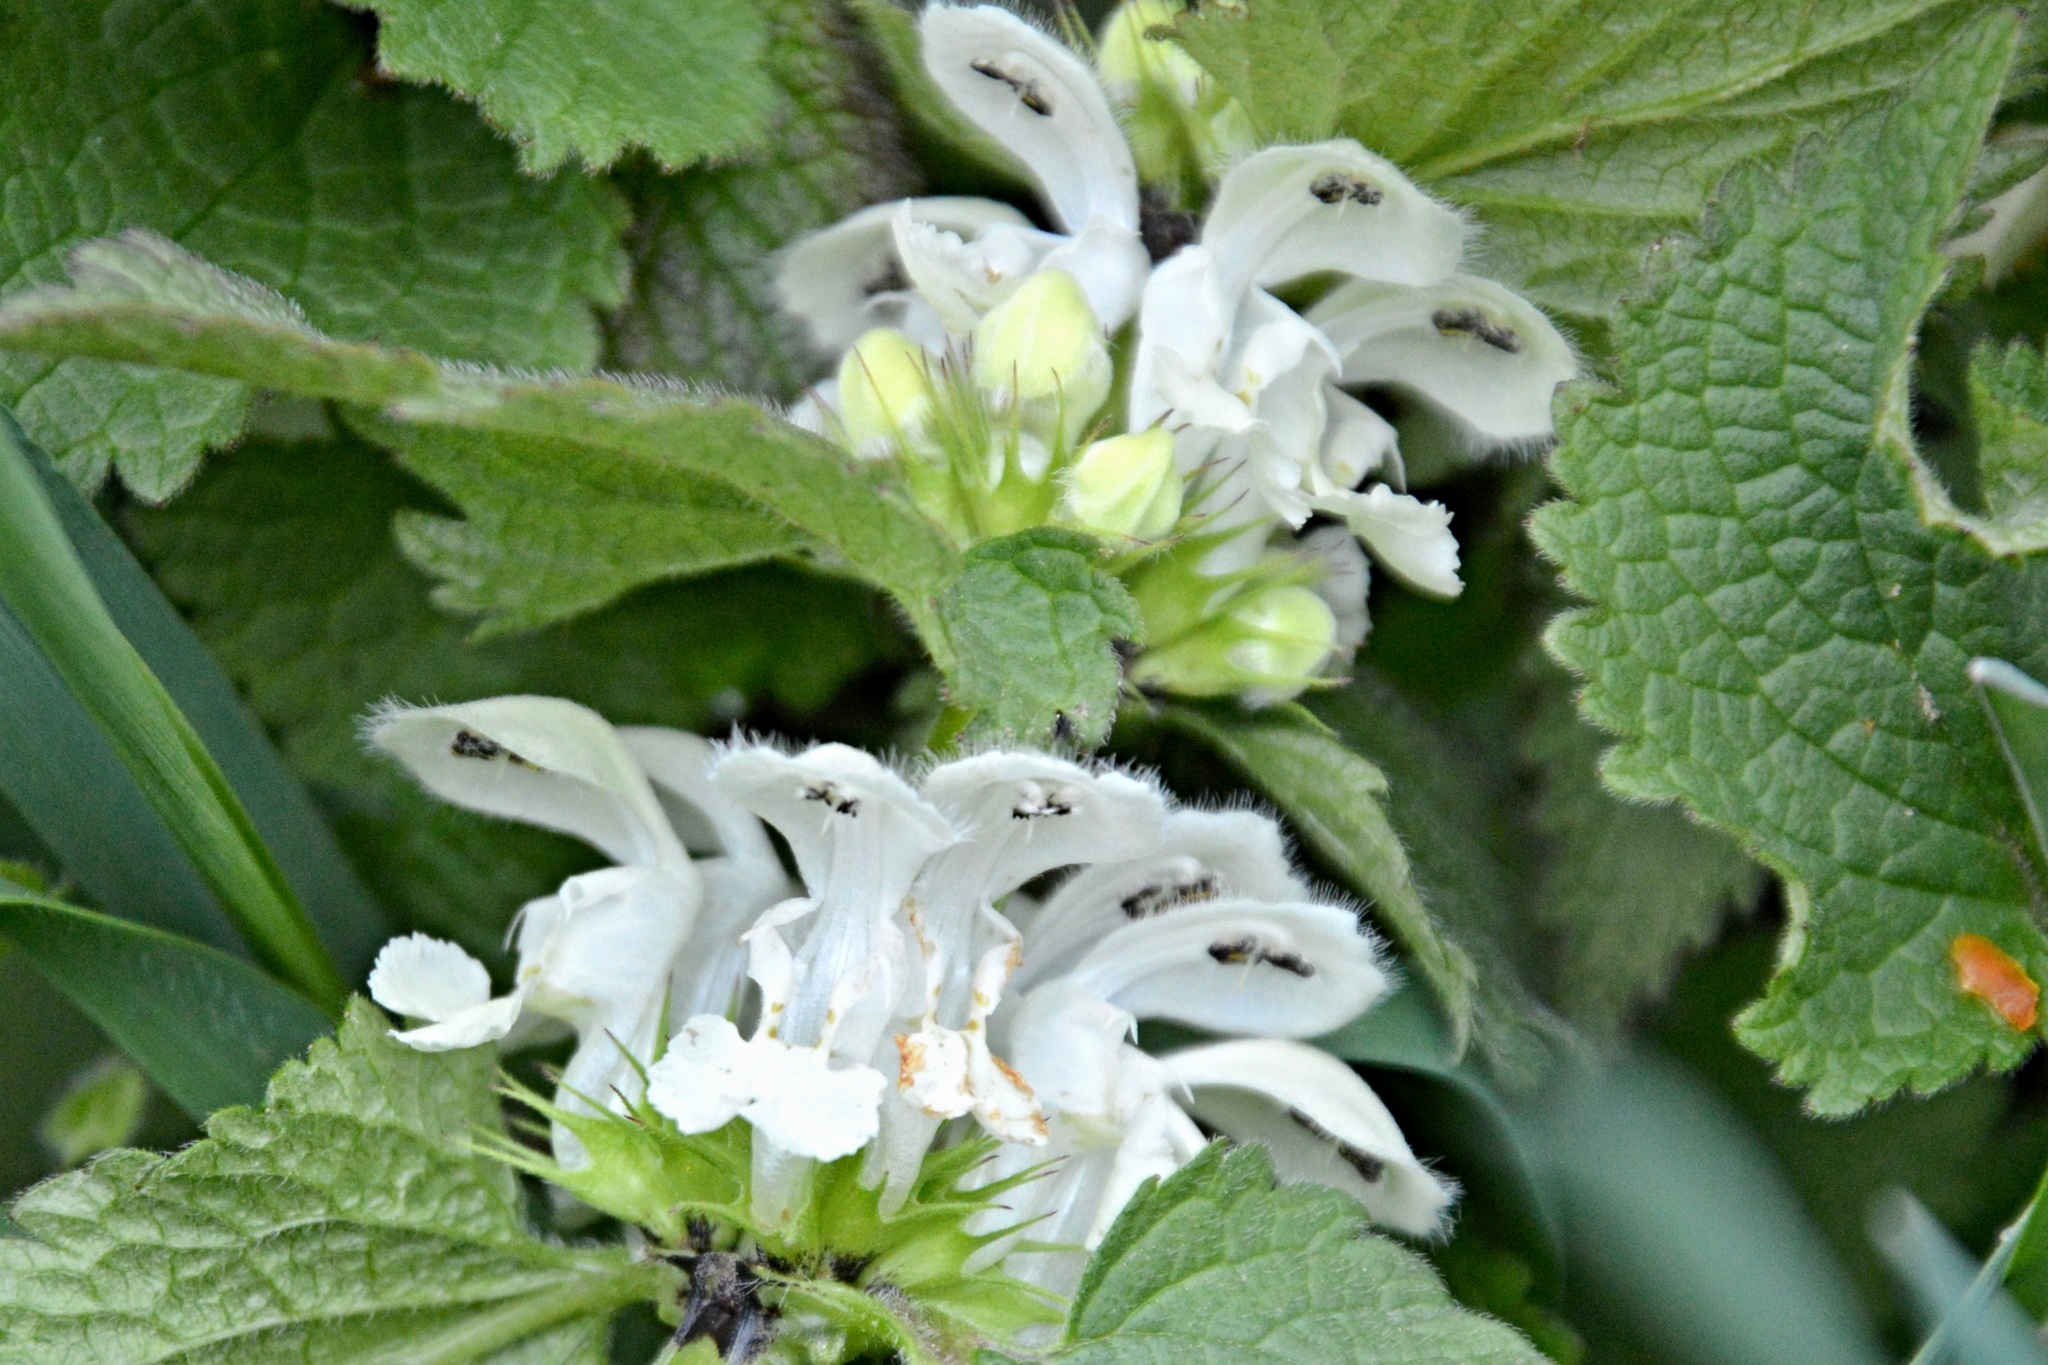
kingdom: Plantae
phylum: Tracheophyta
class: Magnoliopsida
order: Lamiales
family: Lamiaceae
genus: Lamium
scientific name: Lamium album
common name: White dead-nettle
